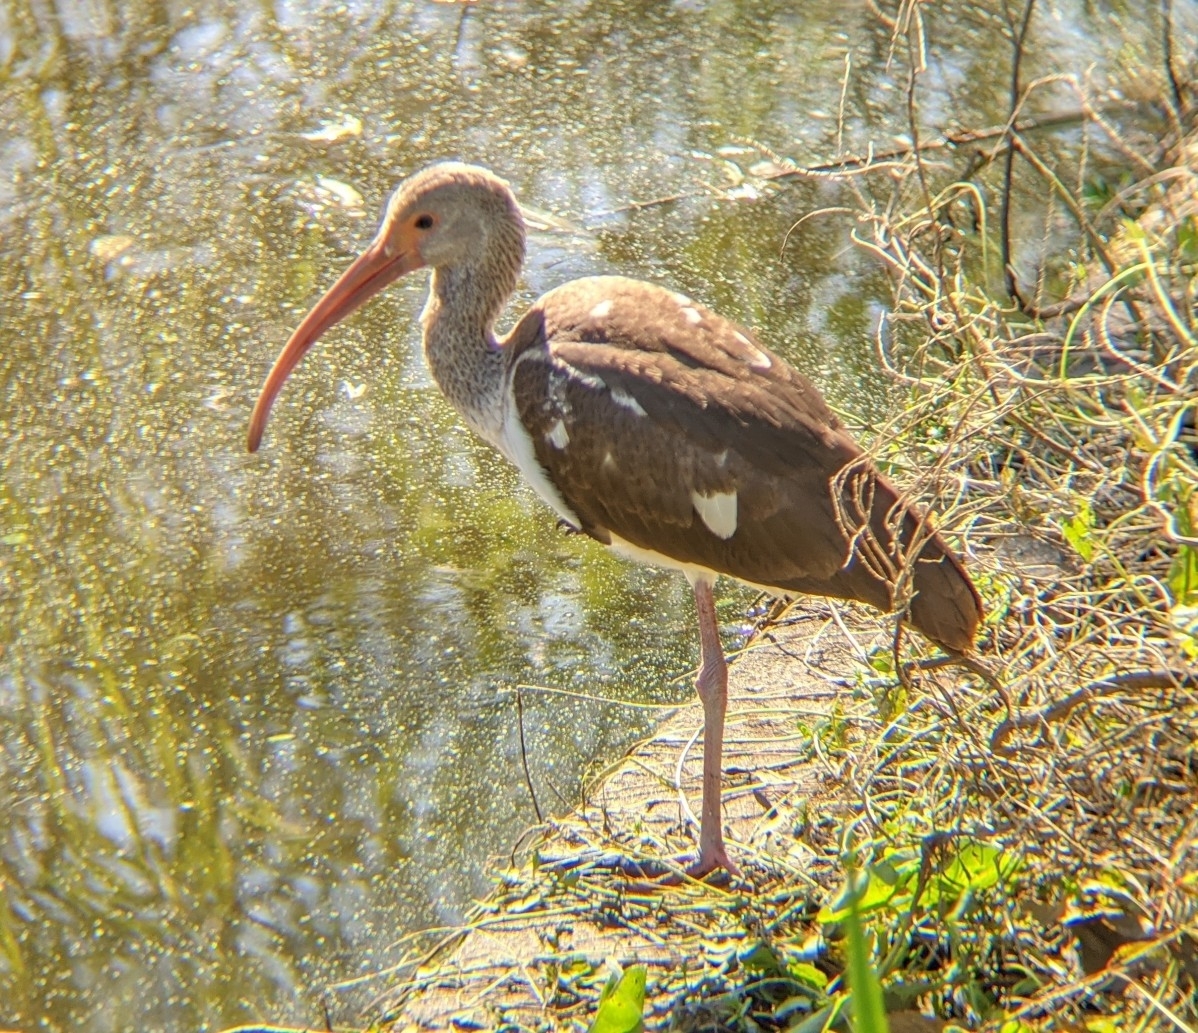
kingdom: Animalia
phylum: Chordata
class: Aves
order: Pelecaniformes
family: Threskiornithidae
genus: Eudocimus
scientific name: Eudocimus albus
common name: White ibis
